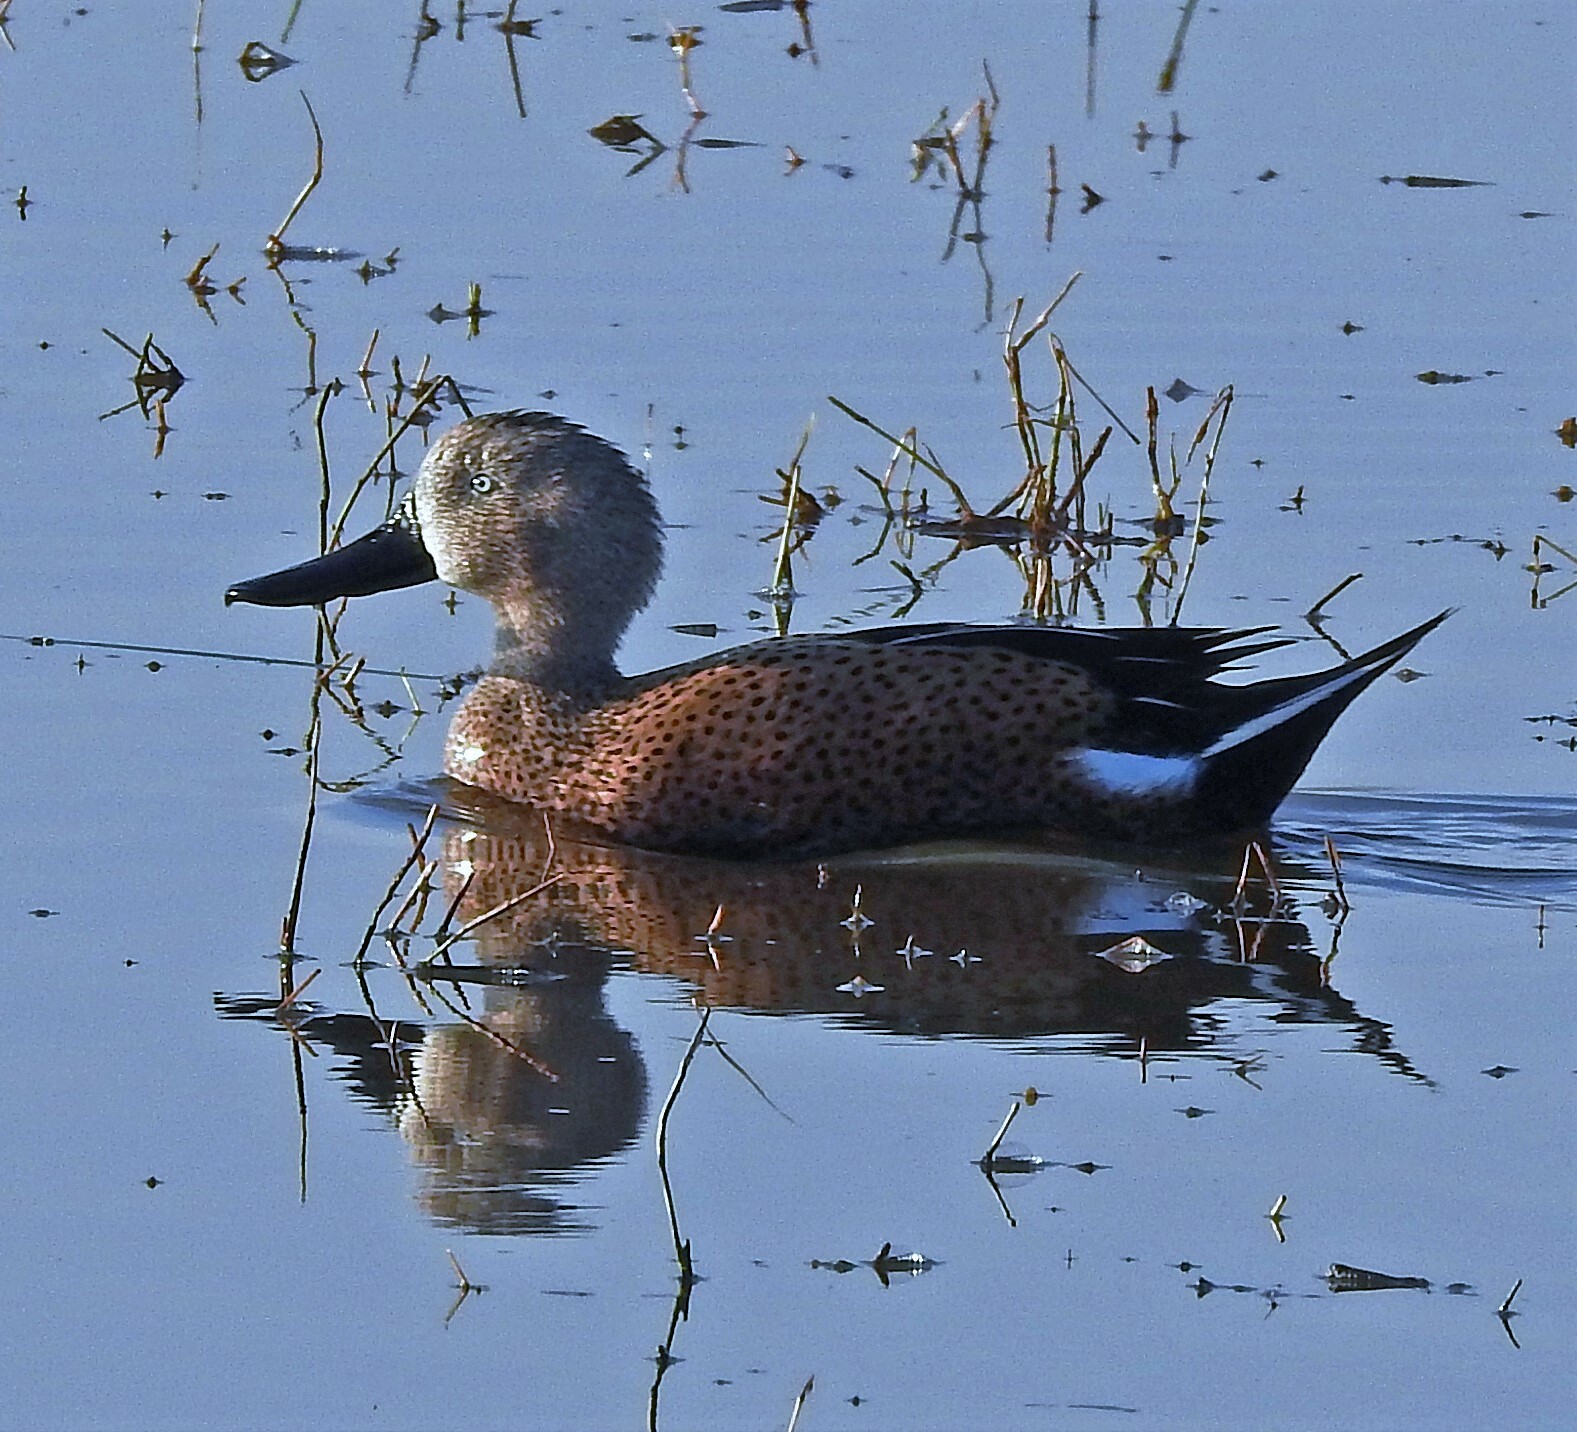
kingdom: Animalia
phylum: Chordata
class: Aves
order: Anseriformes
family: Anatidae
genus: Spatula
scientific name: Spatula platalea
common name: Red shoveler
